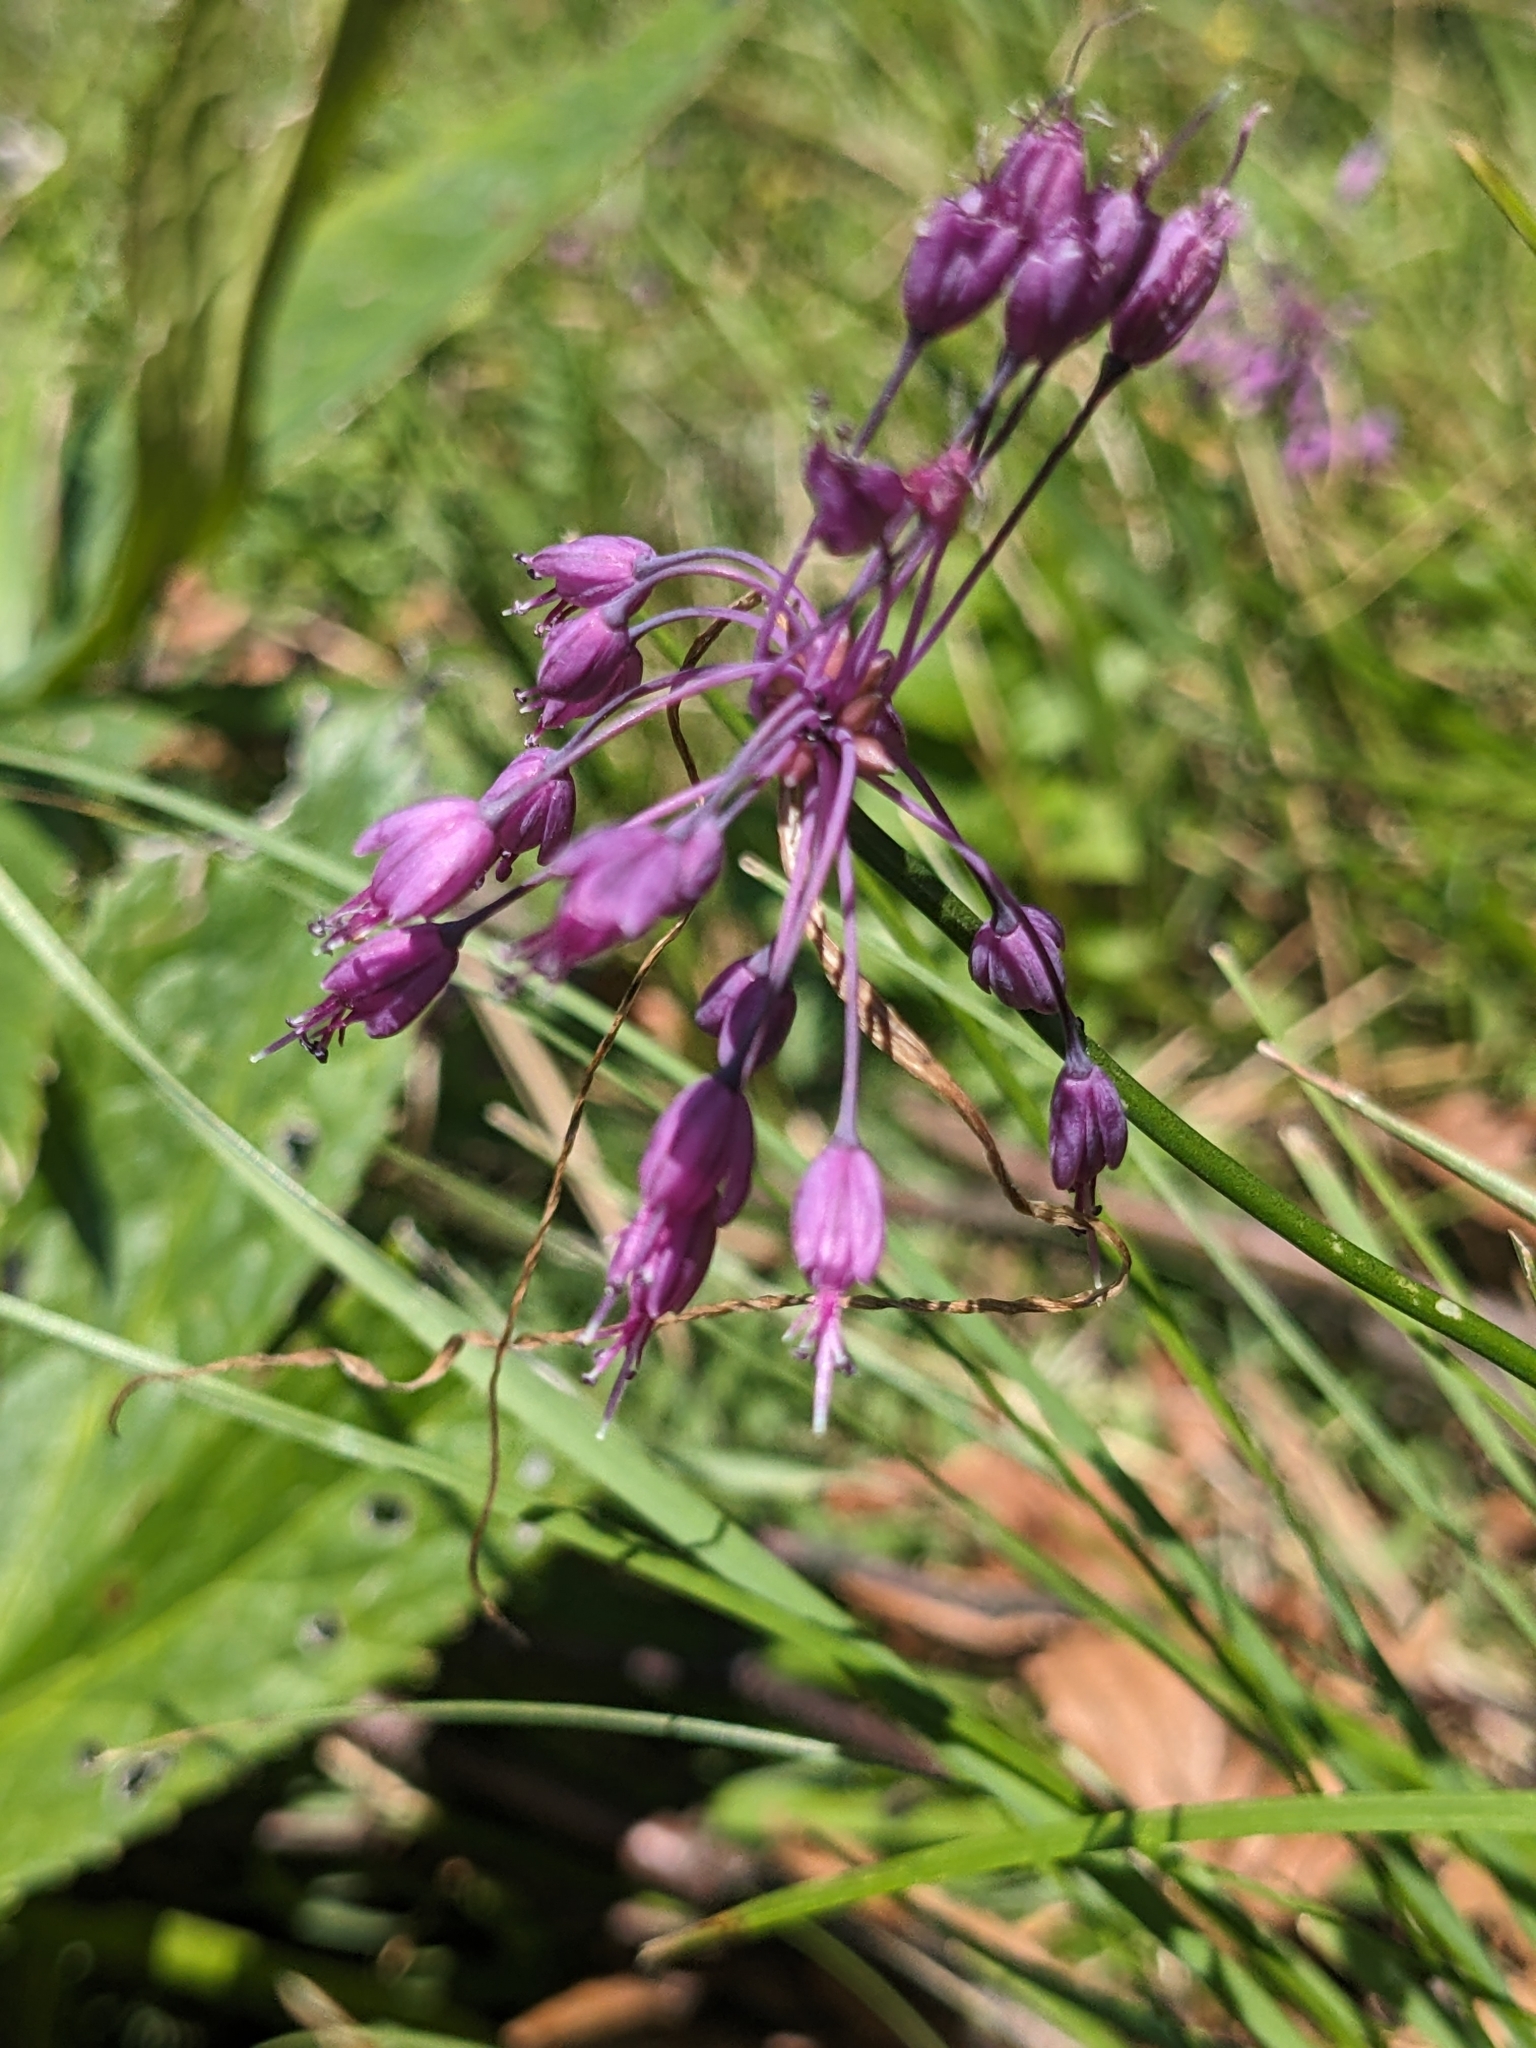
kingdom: Plantae
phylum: Tracheophyta
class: Liliopsida
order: Asparagales
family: Amaryllidaceae
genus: Allium
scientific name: Allium carinatum
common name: Keeled garlic
